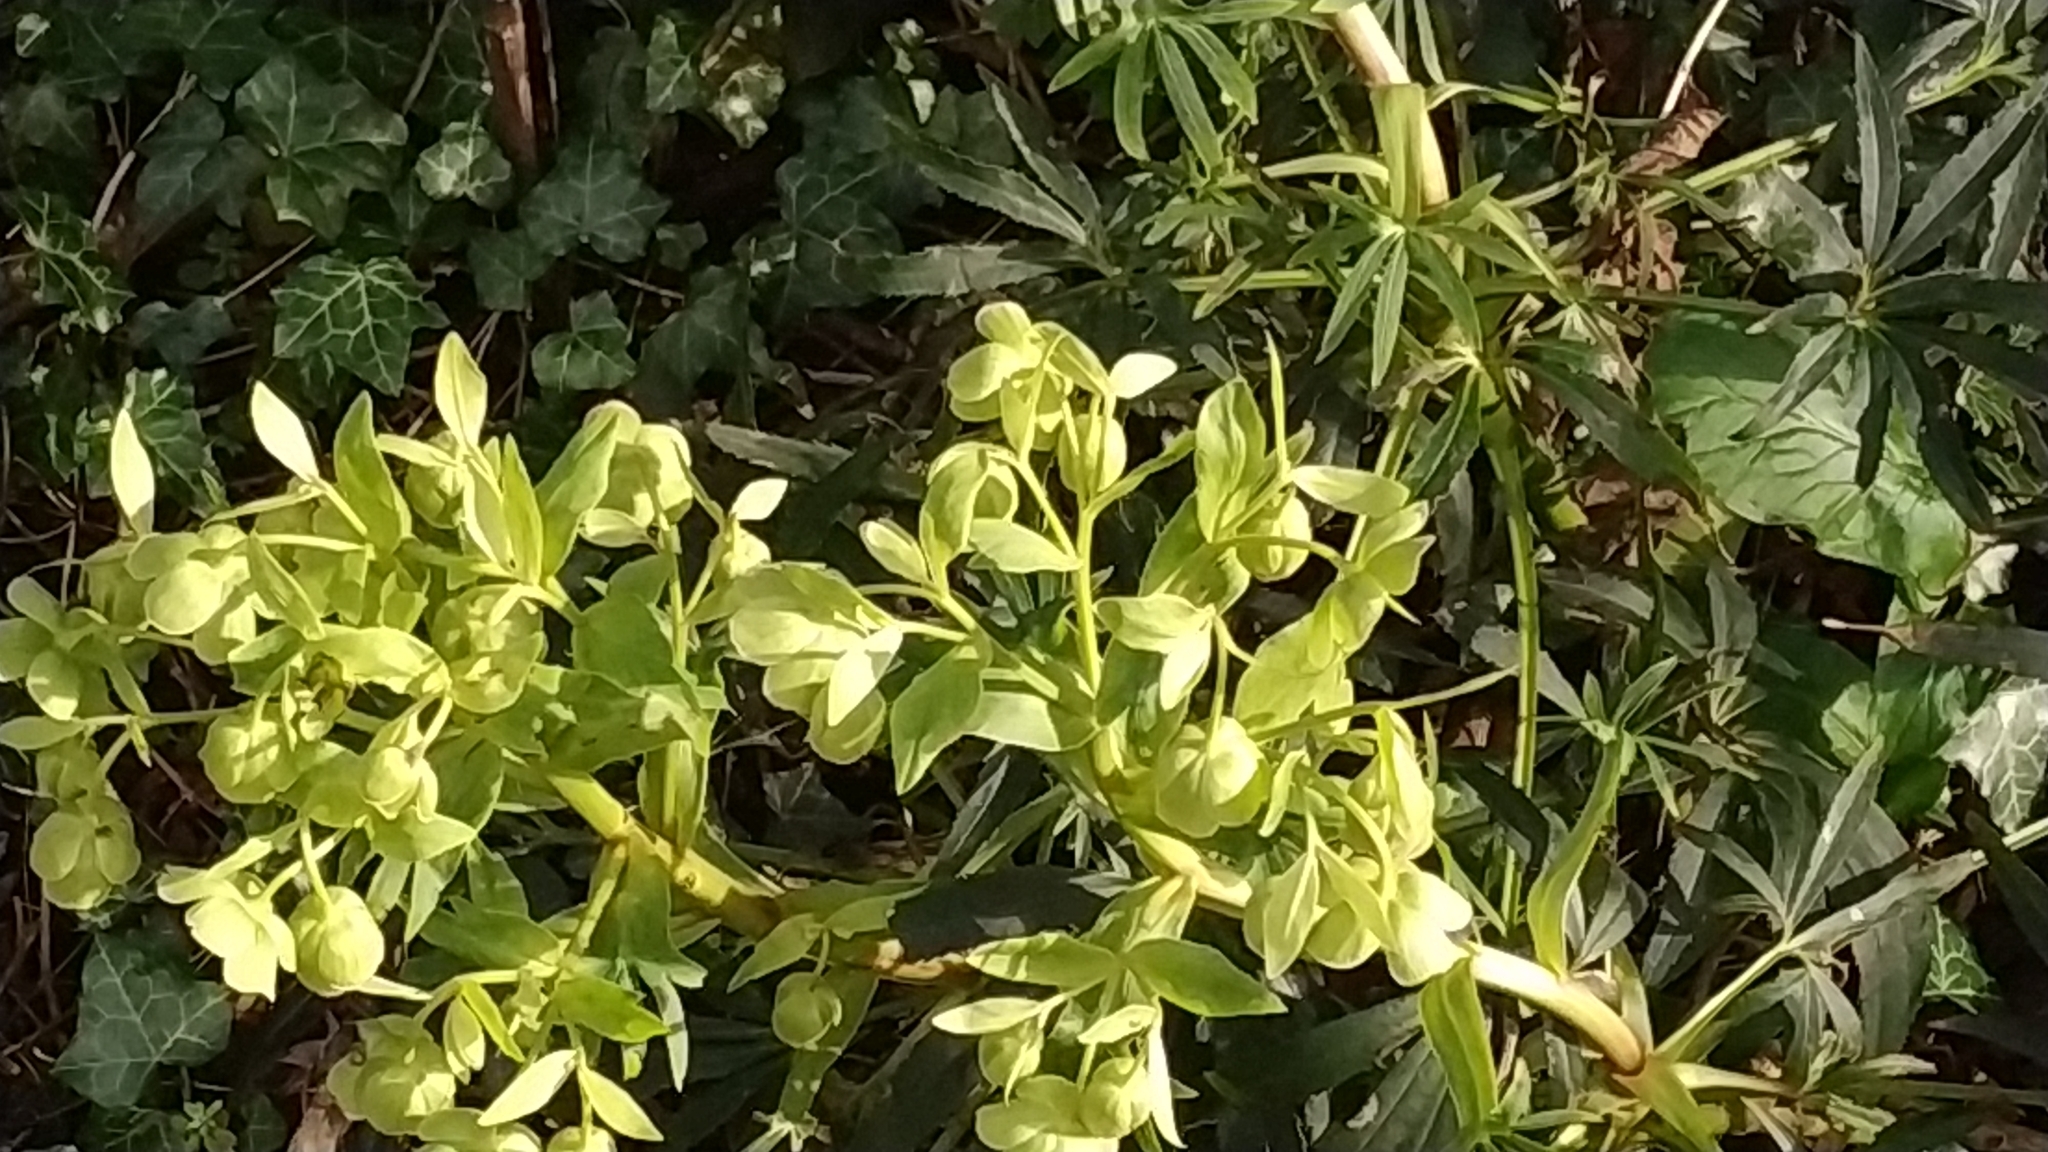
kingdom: Plantae
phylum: Tracheophyta
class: Magnoliopsida
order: Ranunculales
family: Ranunculaceae
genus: Helleborus
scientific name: Helleborus foetidus
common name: Stinking hellebore
